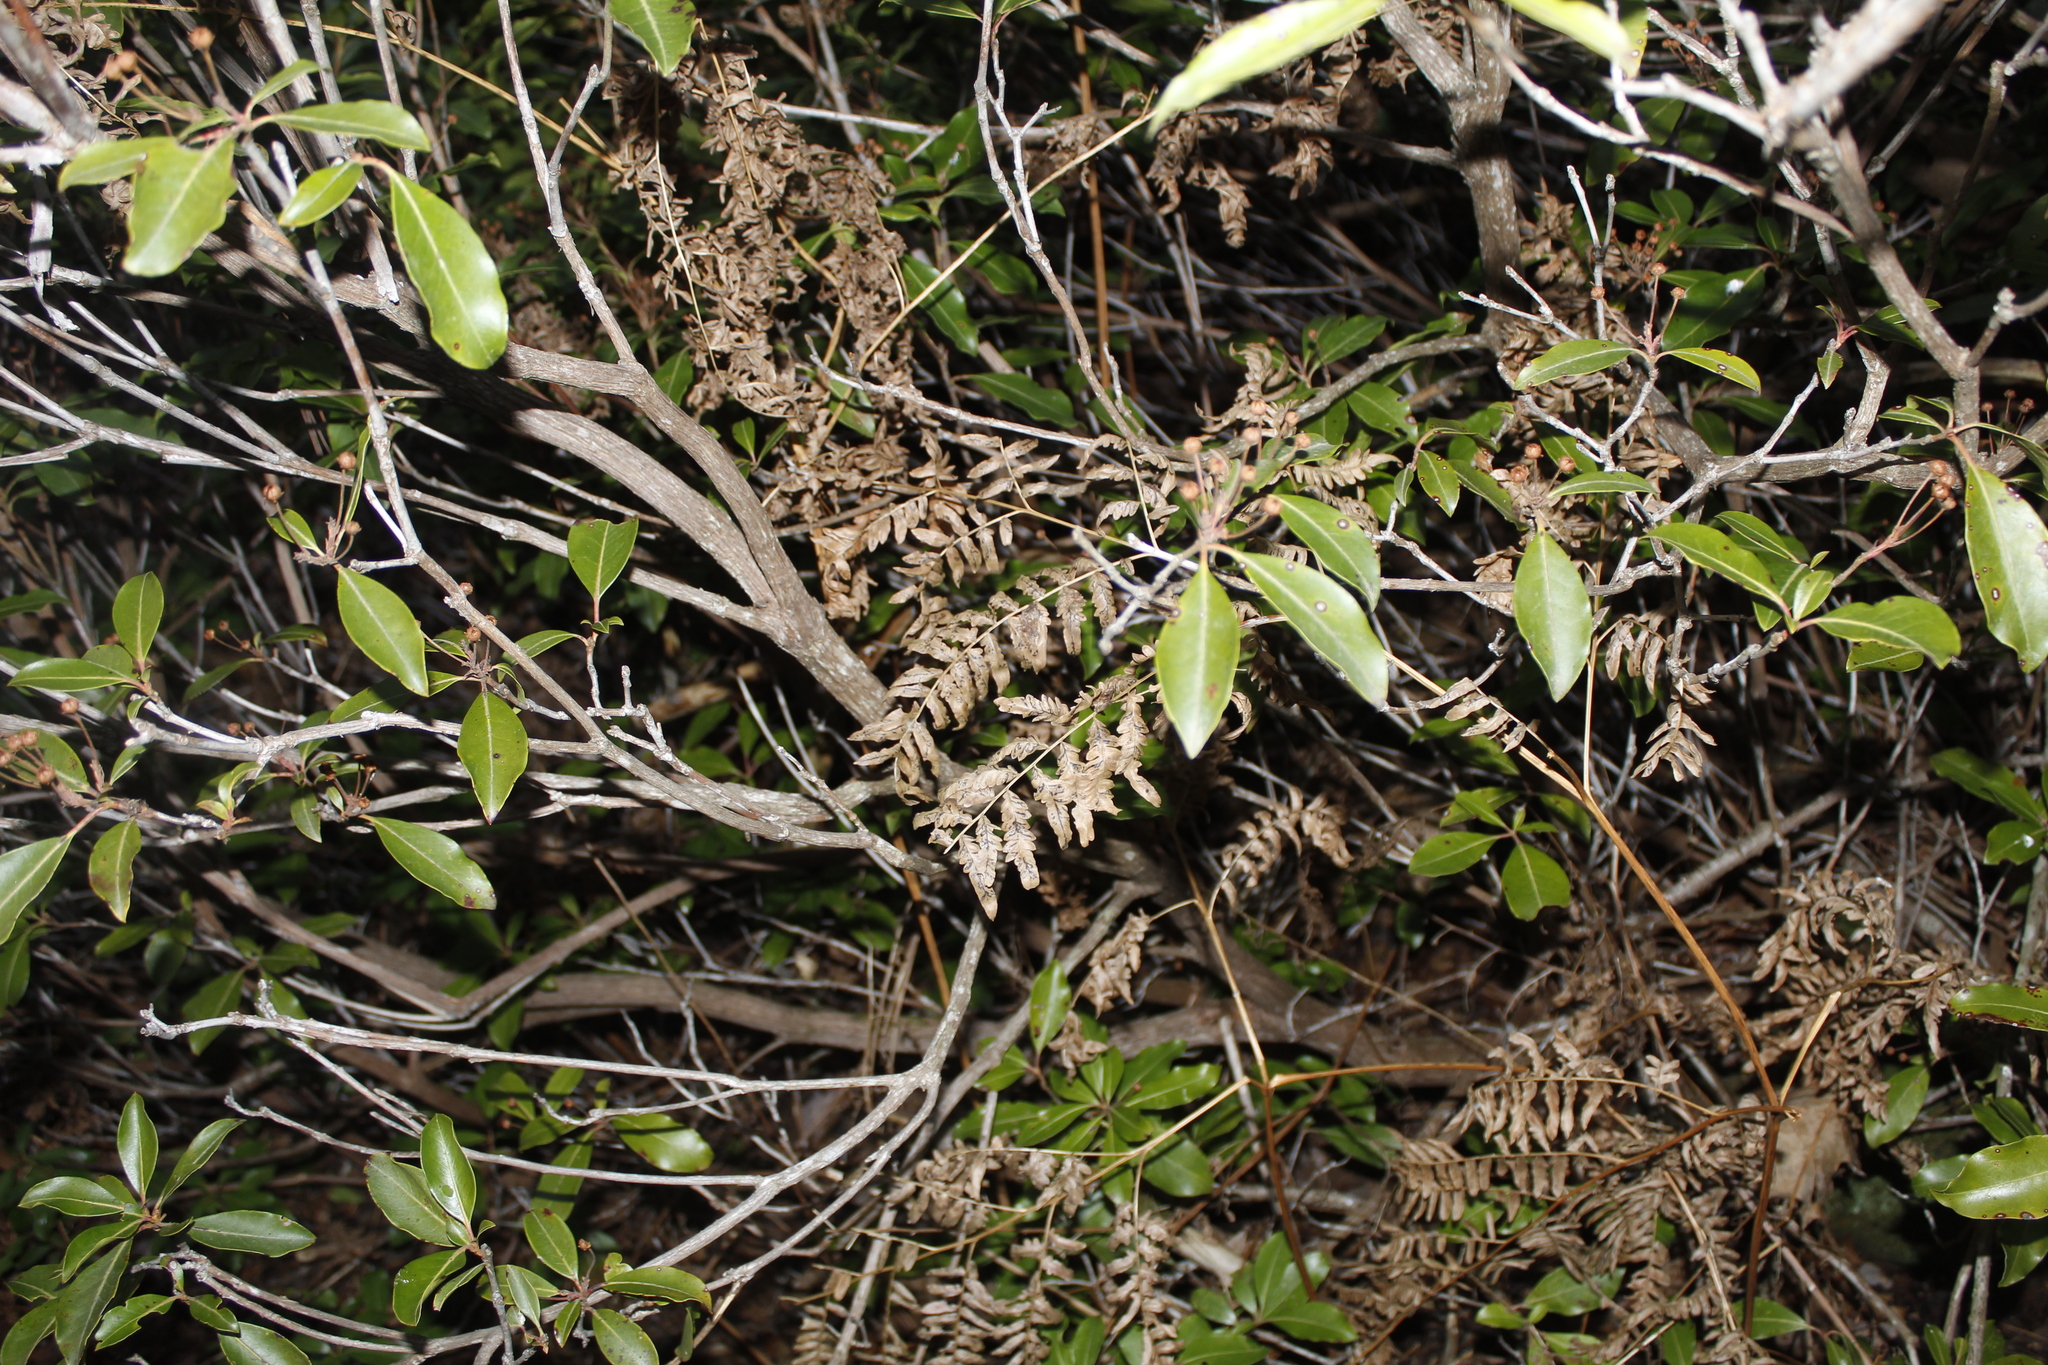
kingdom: Plantae
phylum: Tracheophyta
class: Polypodiopsida
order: Polypodiales
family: Dennstaedtiaceae
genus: Pteridium
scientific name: Pteridium aquilinum
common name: Bracken
